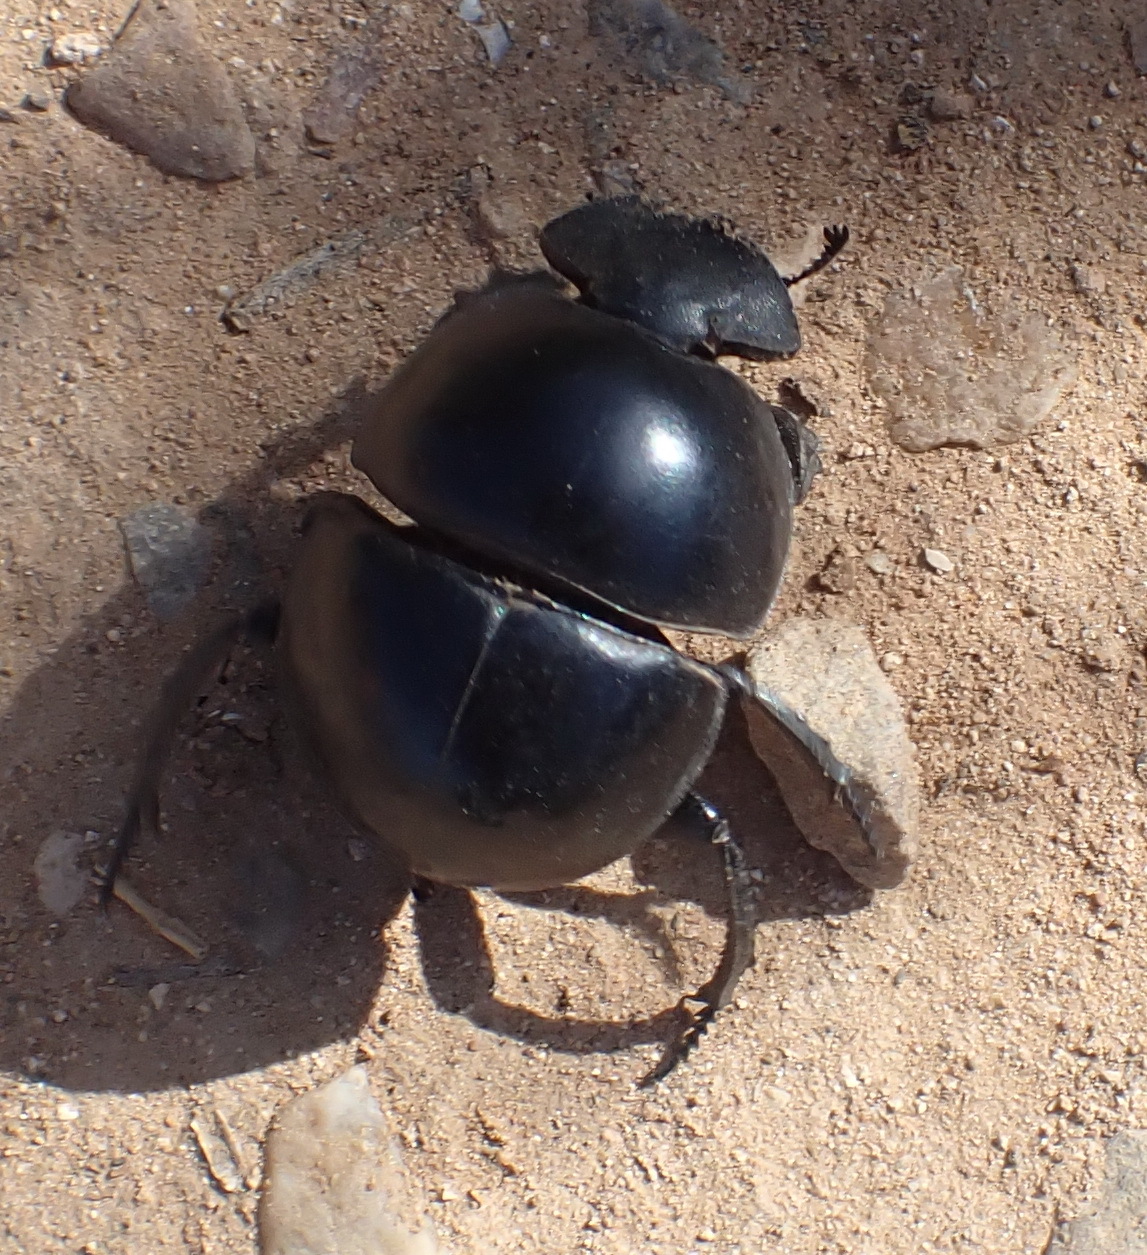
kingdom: Animalia
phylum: Arthropoda
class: Insecta
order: Coleoptera
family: Scarabaeidae
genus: Circellium
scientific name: Circellium bacchus
